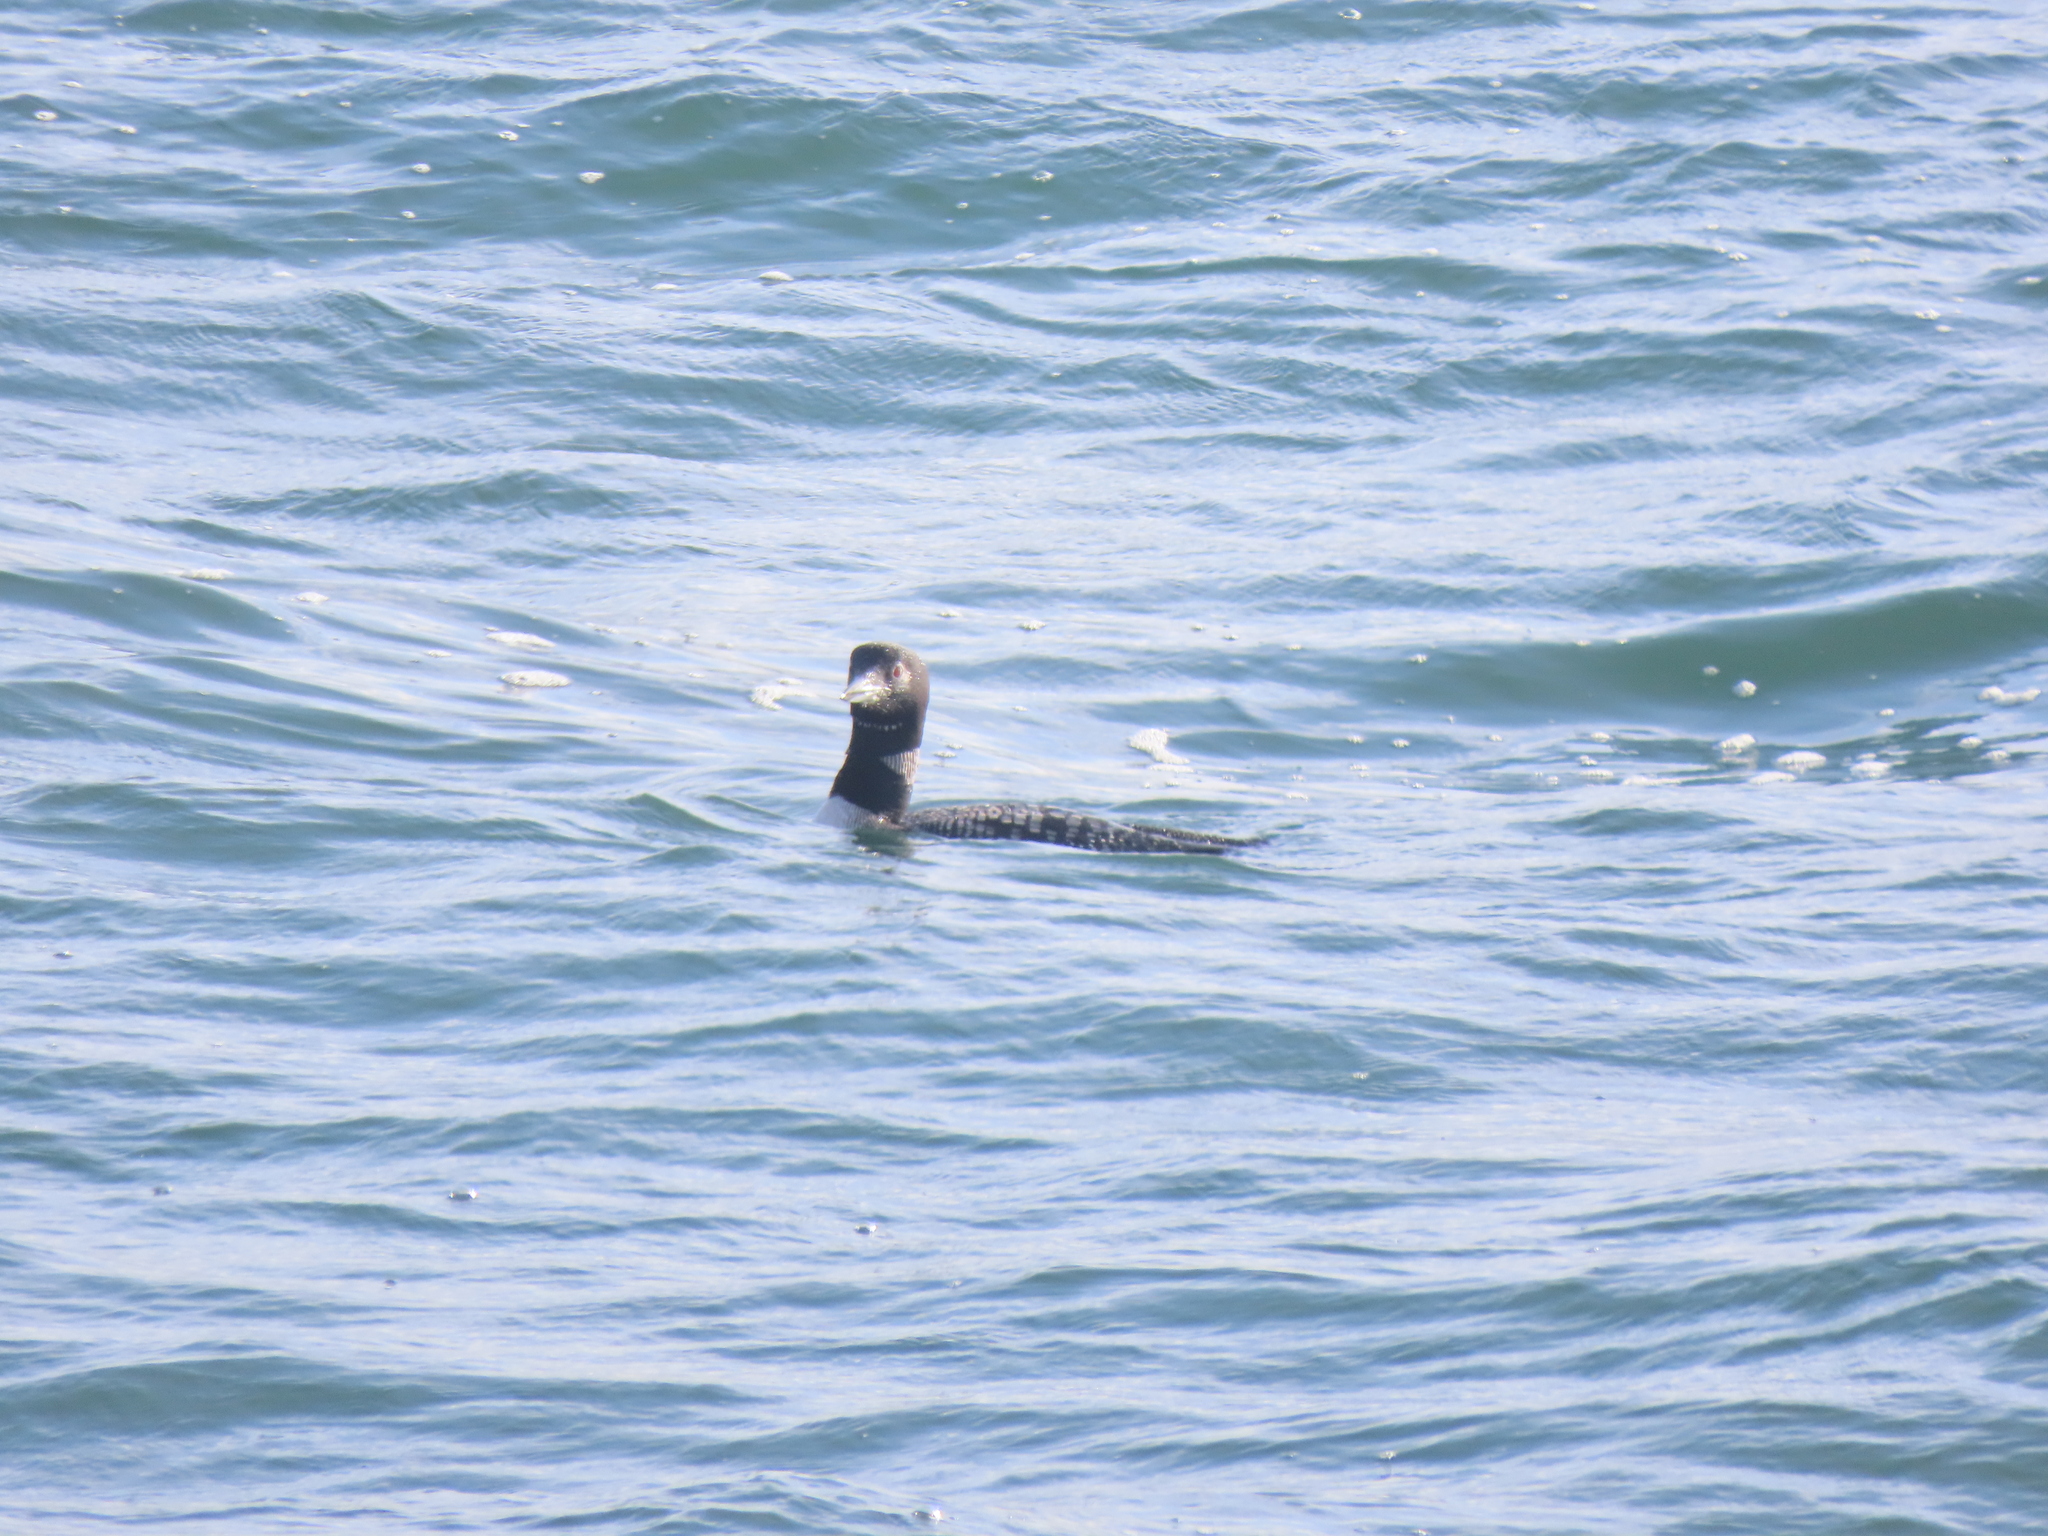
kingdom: Animalia
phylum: Chordata
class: Aves
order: Gaviiformes
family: Gaviidae
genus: Gavia
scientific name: Gavia immer
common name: Common loon
